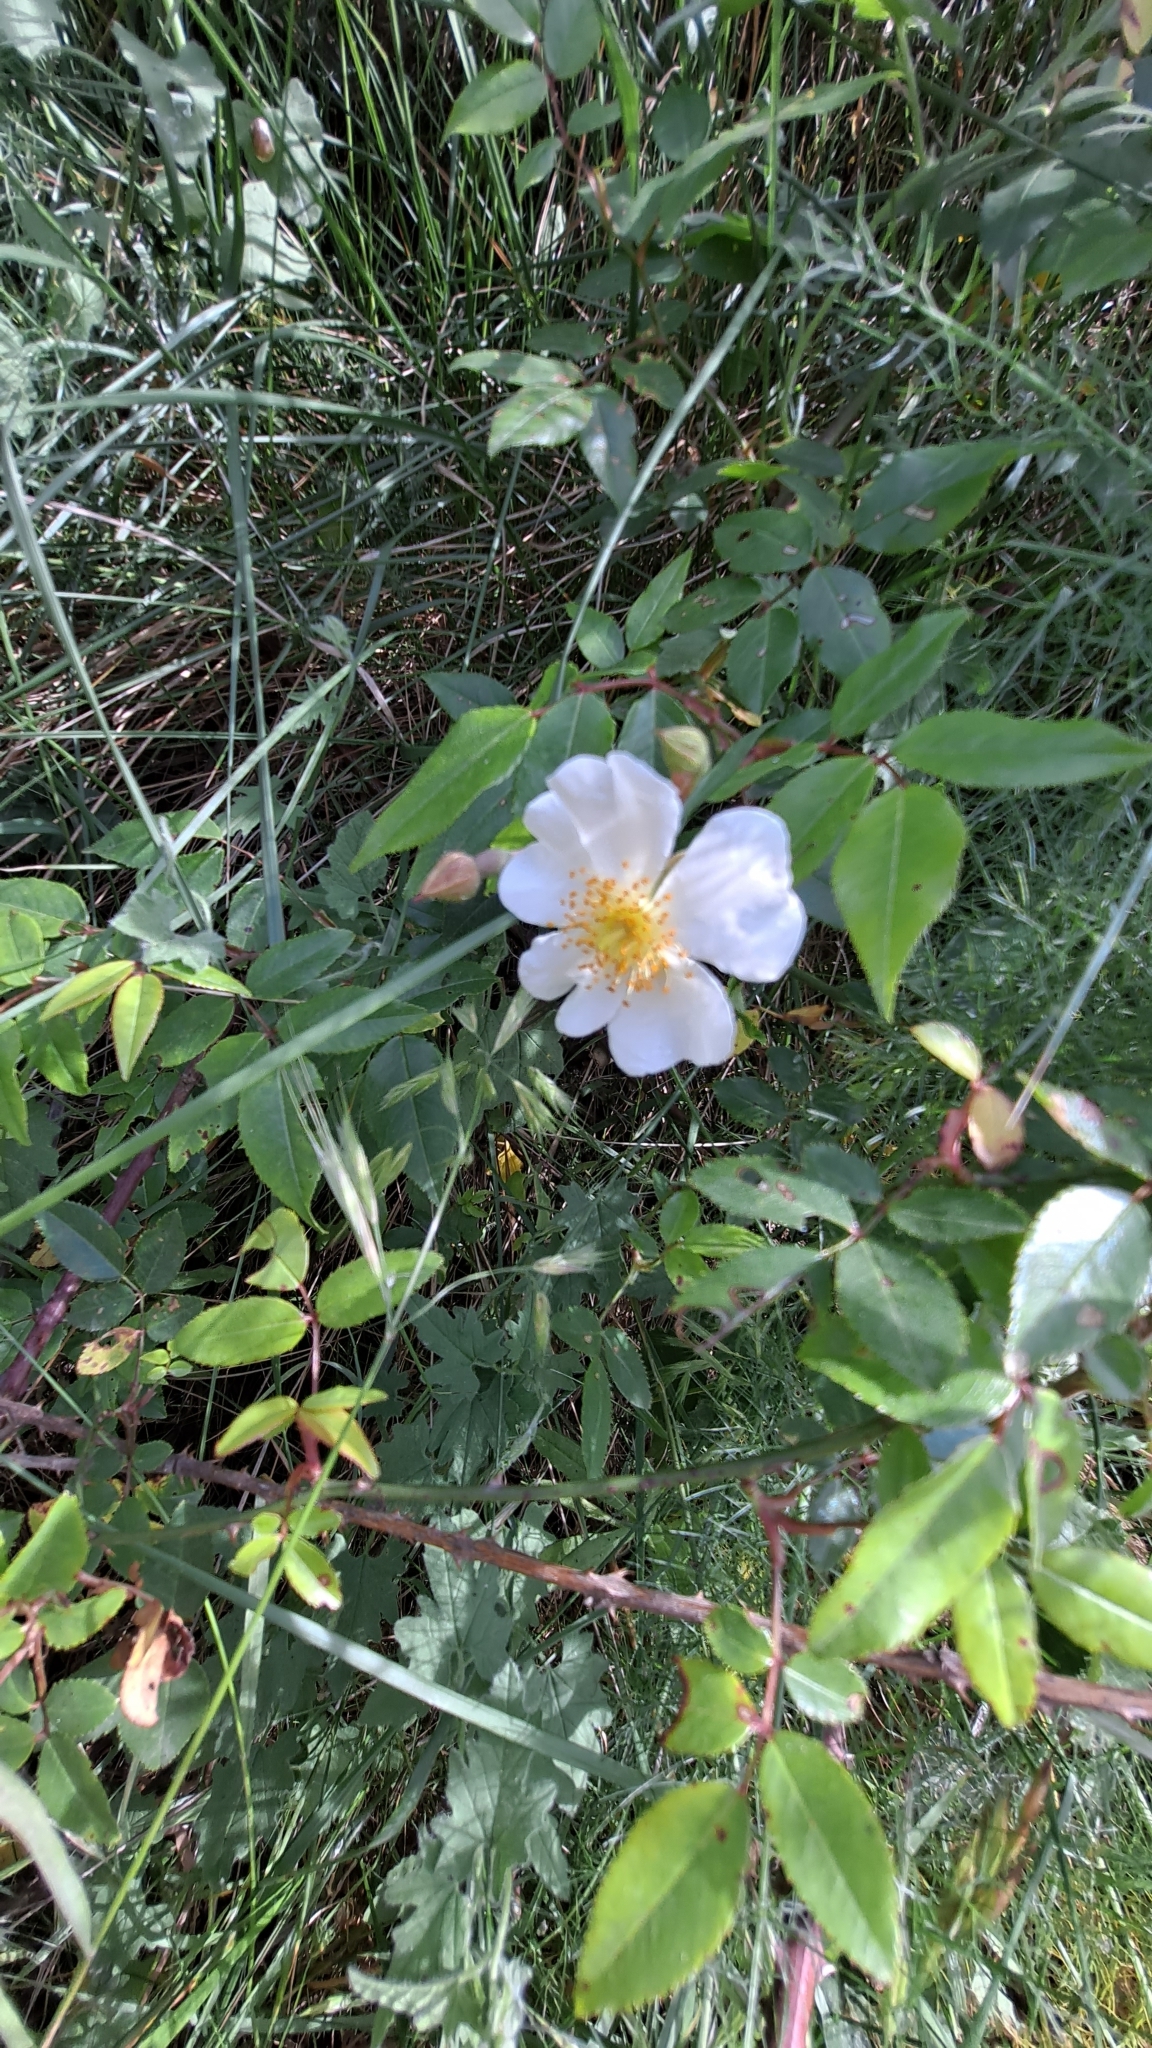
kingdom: Plantae
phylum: Tracheophyta
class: Magnoliopsida
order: Rosales
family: Rosaceae
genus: Rosa
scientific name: Rosa sempervirens
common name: Evergreen rose
